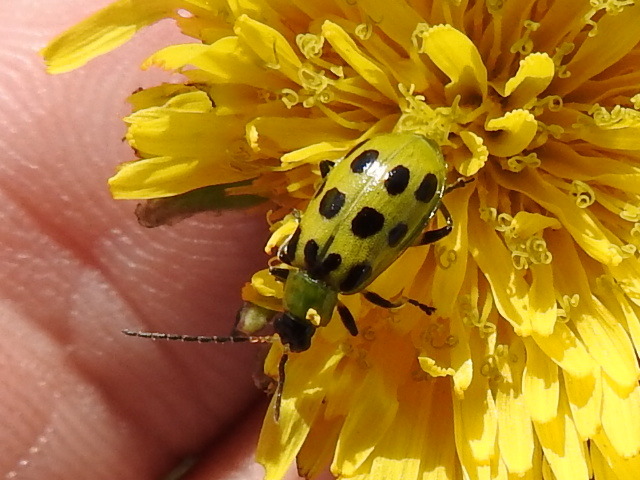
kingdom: Animalia
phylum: Arthropoda
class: Insecta
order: Coleoptera
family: Chrysomelidae
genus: Diabrotica
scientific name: Diabrotica undecimpunctata
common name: Spotted cucumber beetle
